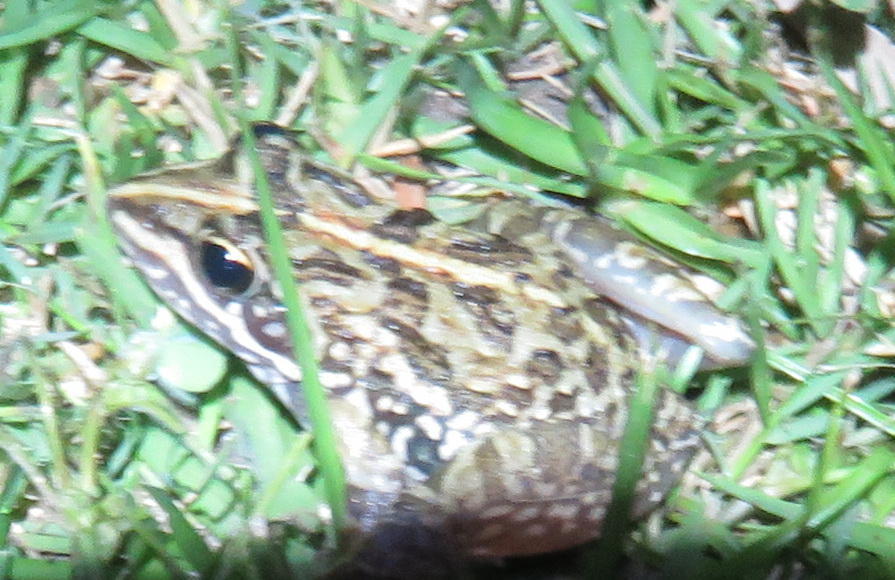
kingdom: Animalia
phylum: Chordata
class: Amphibia
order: Anura
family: Pyxicephalidae
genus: Amietia
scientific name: Amietia fuscigula
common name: Cape rana
